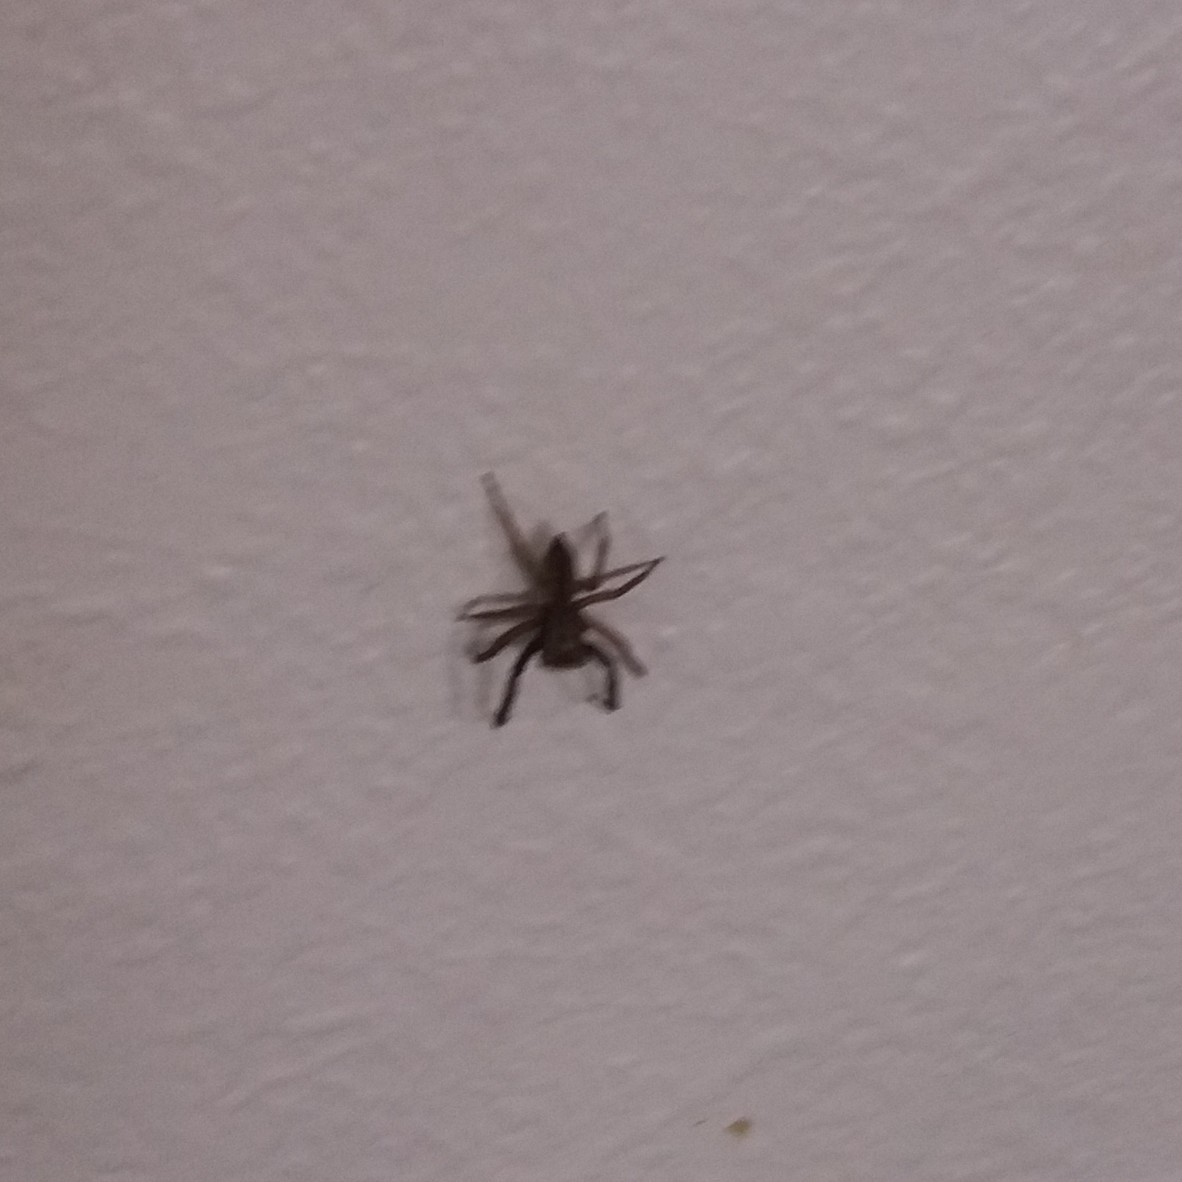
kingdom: Animalia
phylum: Arthropoda
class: Arachnida
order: Araneae
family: Salticidae
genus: Trite
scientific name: Trite auricoma
